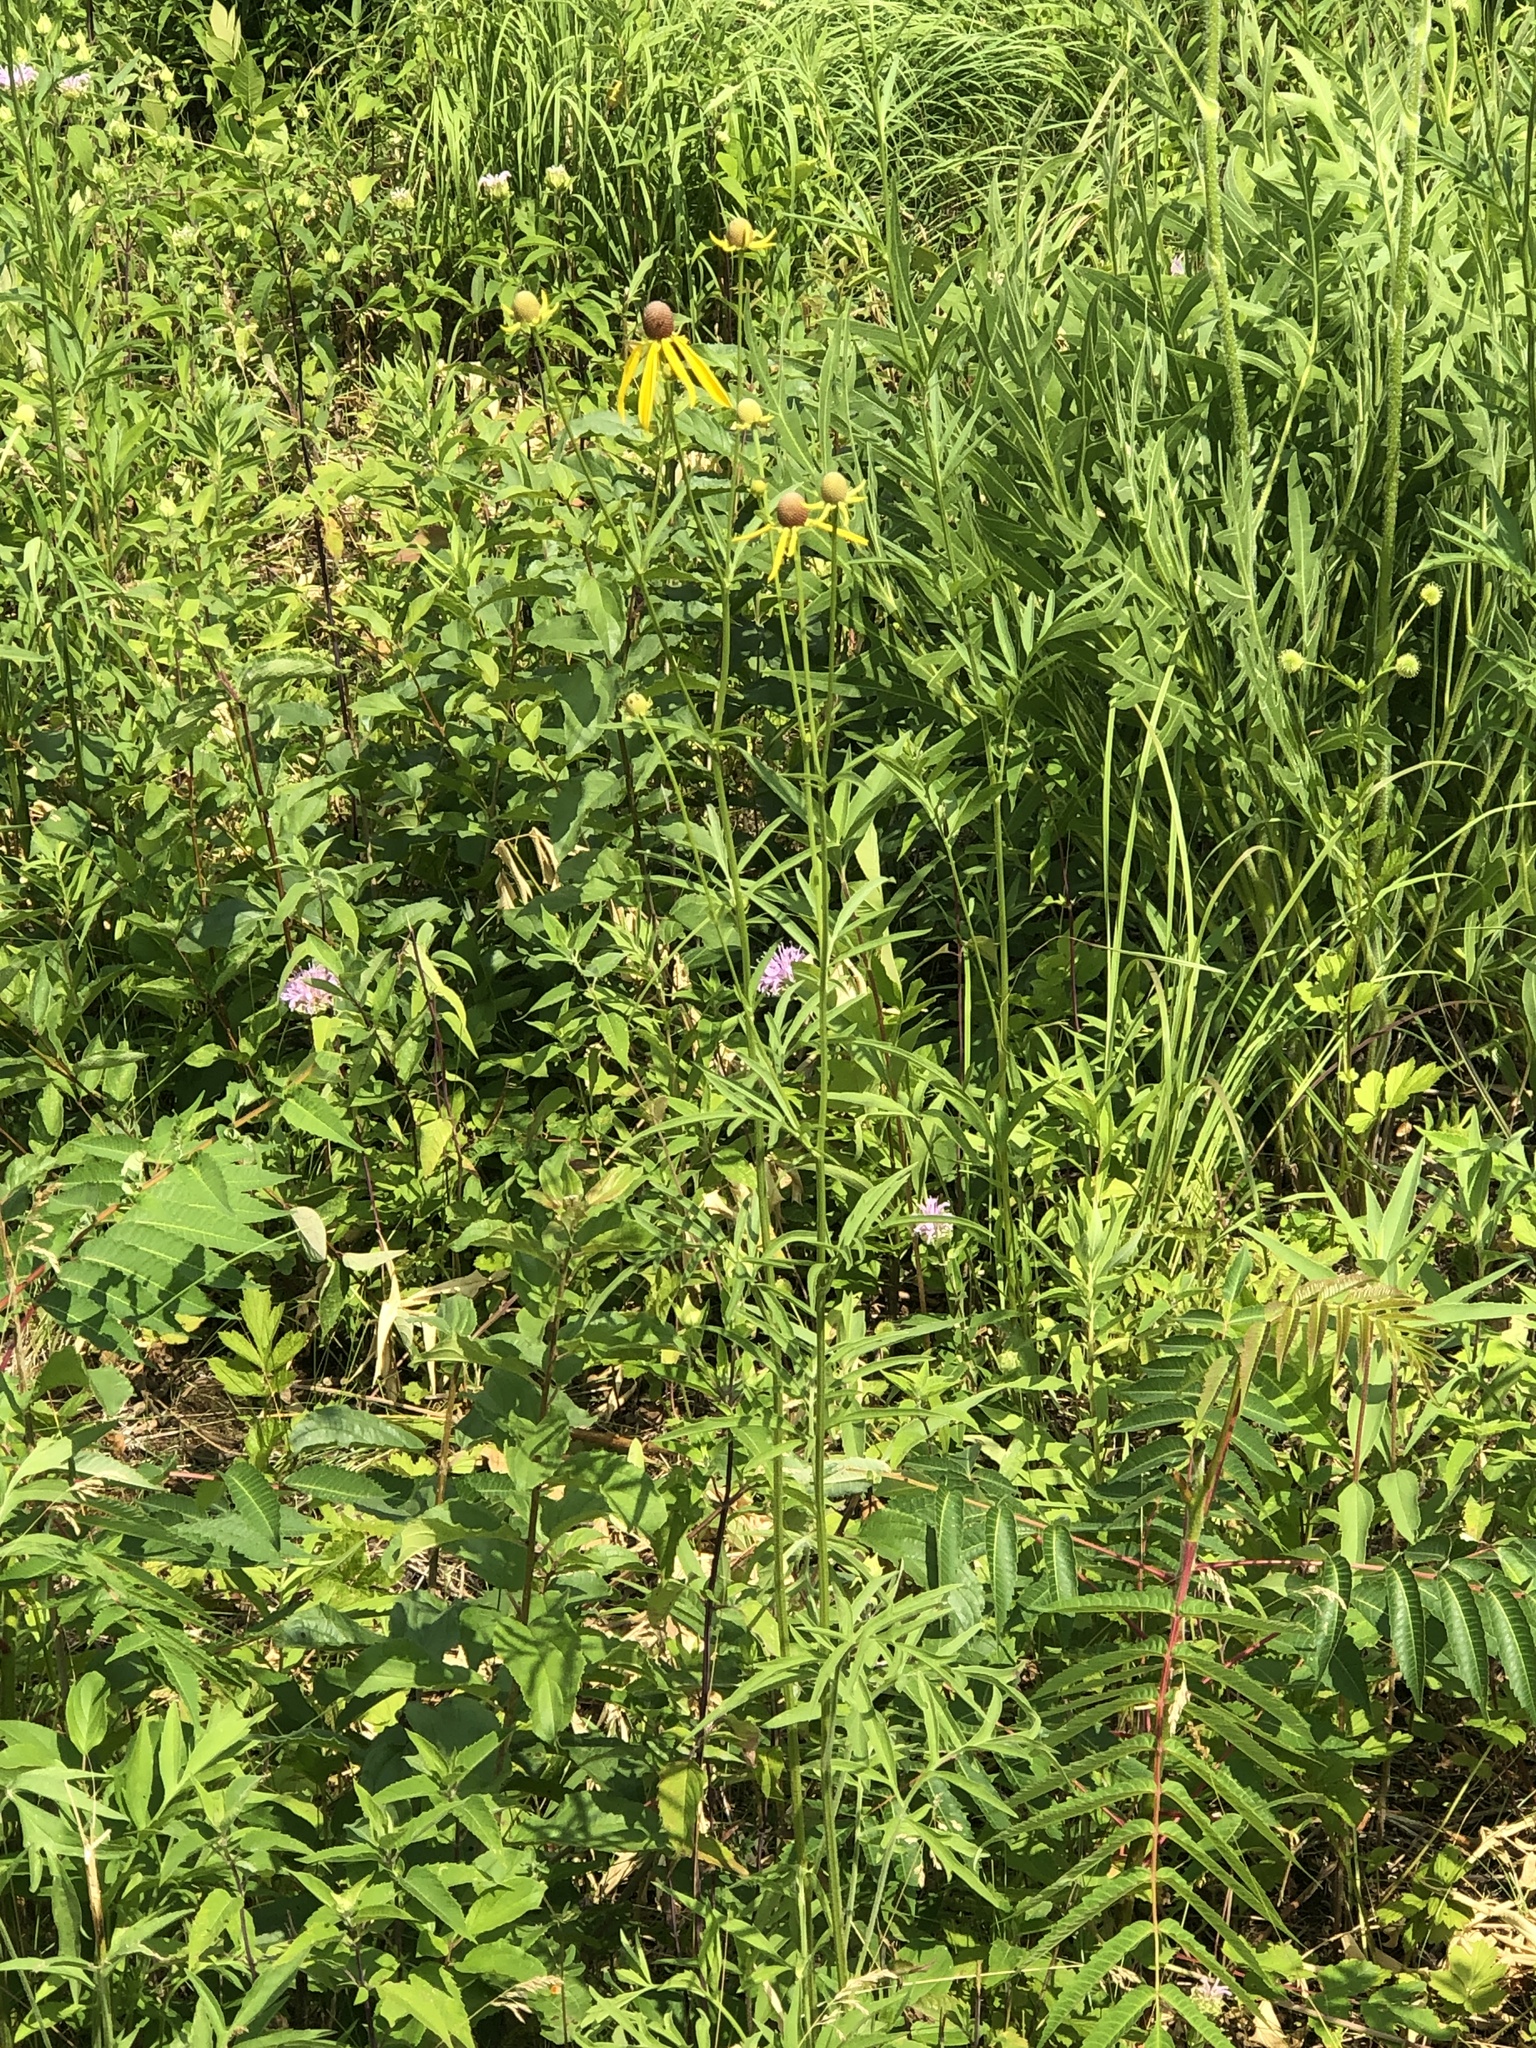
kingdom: Plantae
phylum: Tracheophyta
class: Magnoliopsida
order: Asterales
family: Asteraceae
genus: Ratibida
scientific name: Ratibida pinnata
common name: Drooping prairie-coneflower
